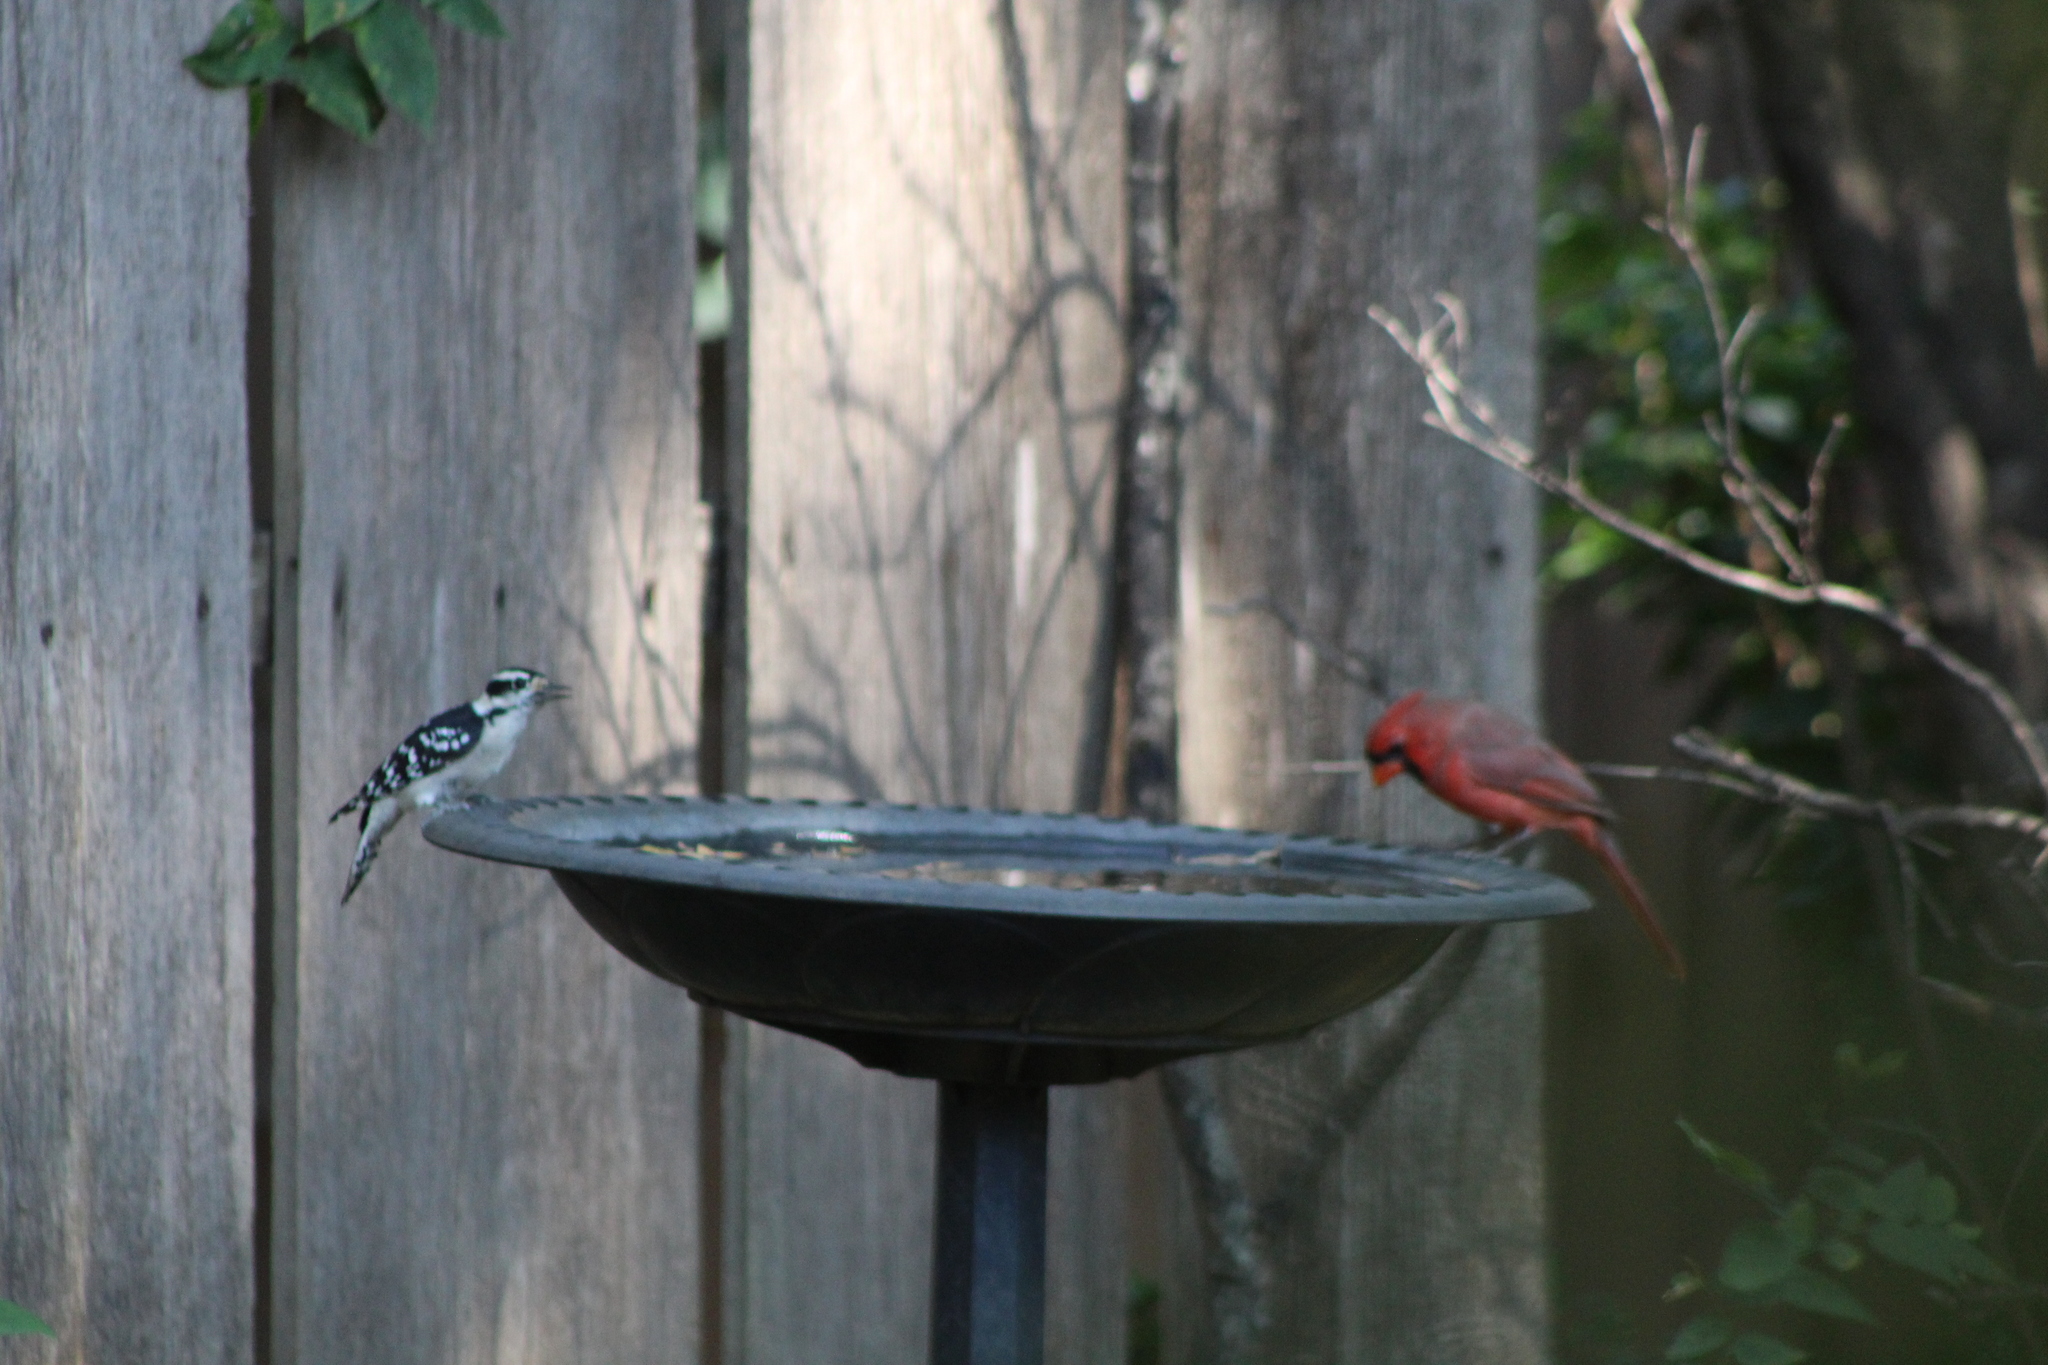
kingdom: Animalia
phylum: Chordata
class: Aves
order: Piciformes
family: Picidae
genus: Dryobates
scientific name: Dryobates pubescens
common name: Downy woodpecker
